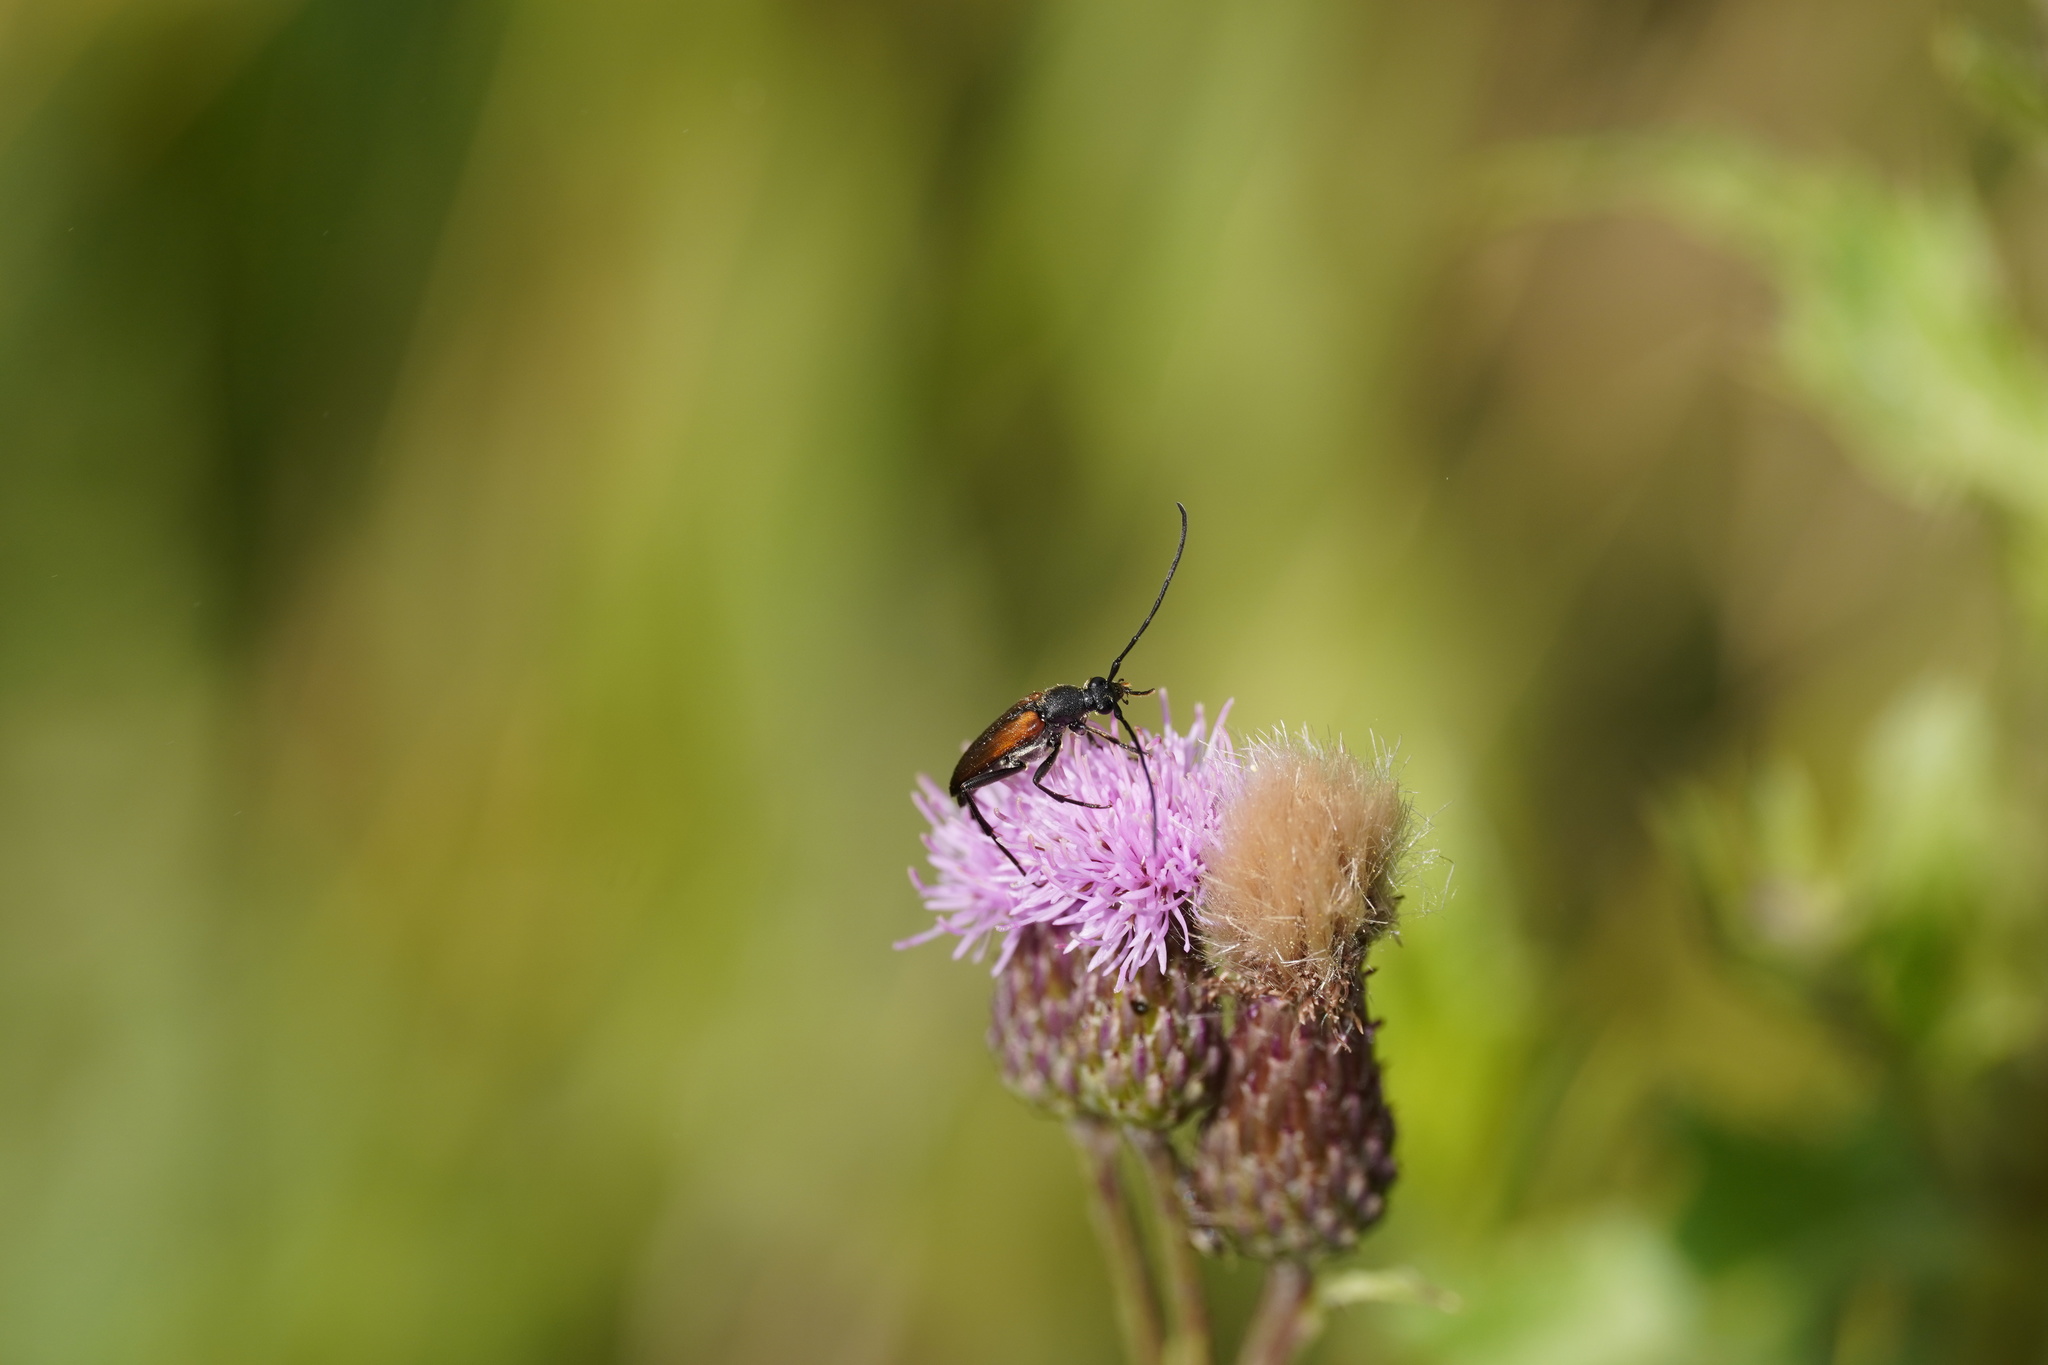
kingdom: Animalia
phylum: Arthropoda
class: Insecta
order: Coleoptera
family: Cerambycidae
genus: Stenurella
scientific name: Stenurella melanura
